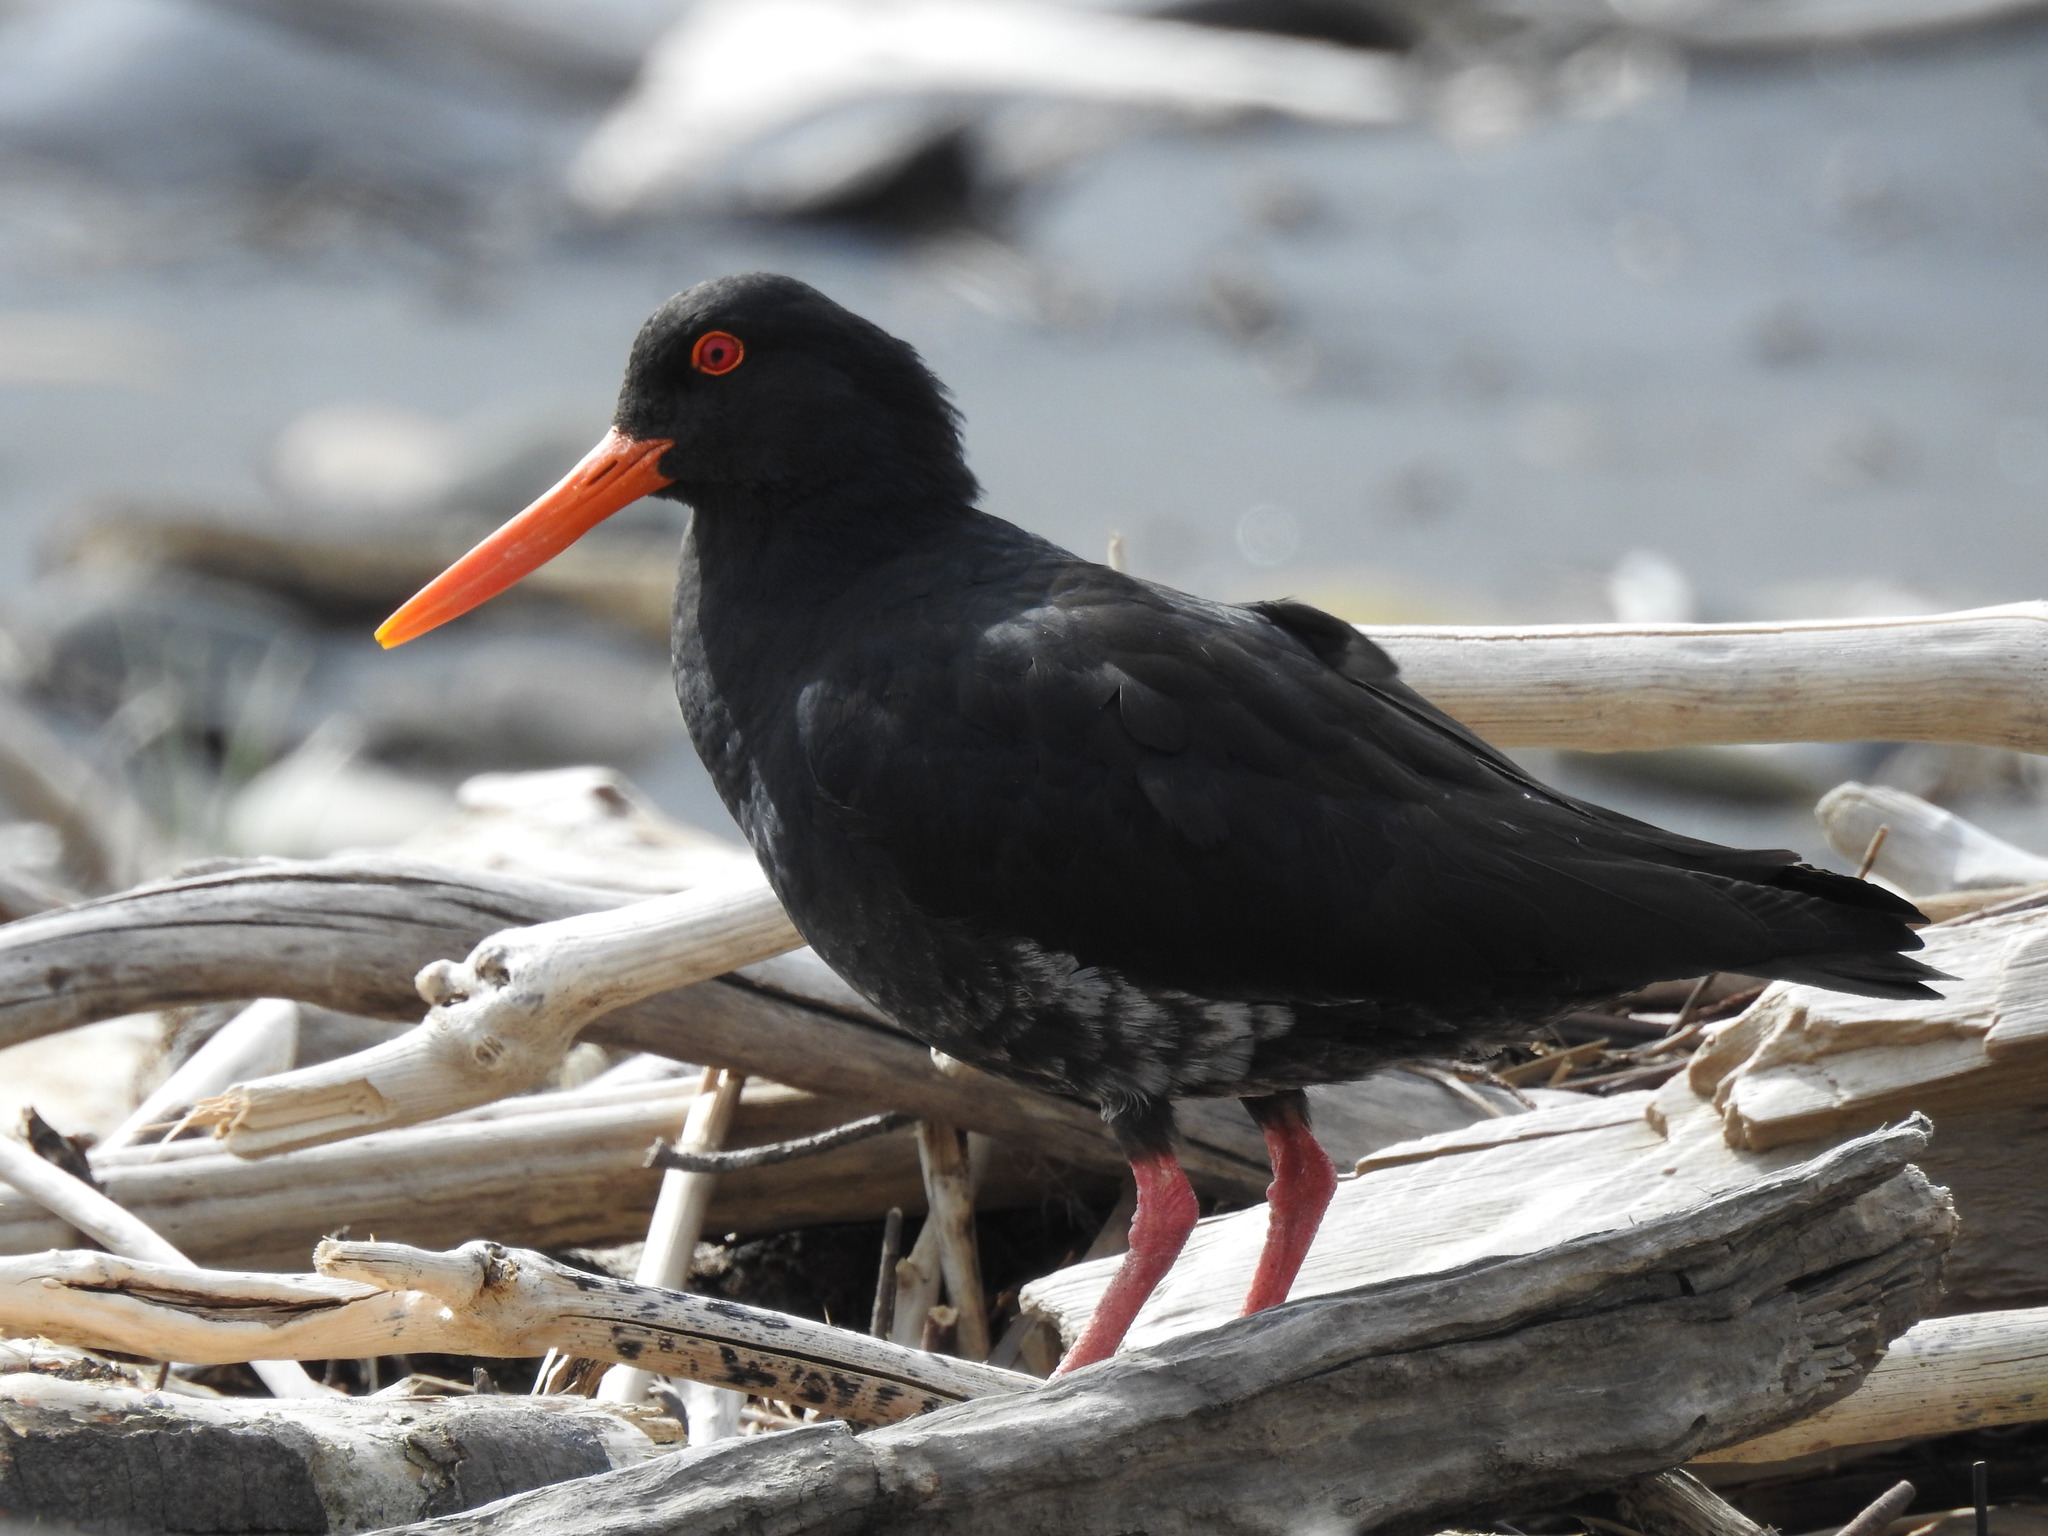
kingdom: Animalia
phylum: Chordata
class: Aves
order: Charadriiformes
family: Haematopodidae
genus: Haematopus
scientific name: Haematopus unicolor
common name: Variable oystercatcher
